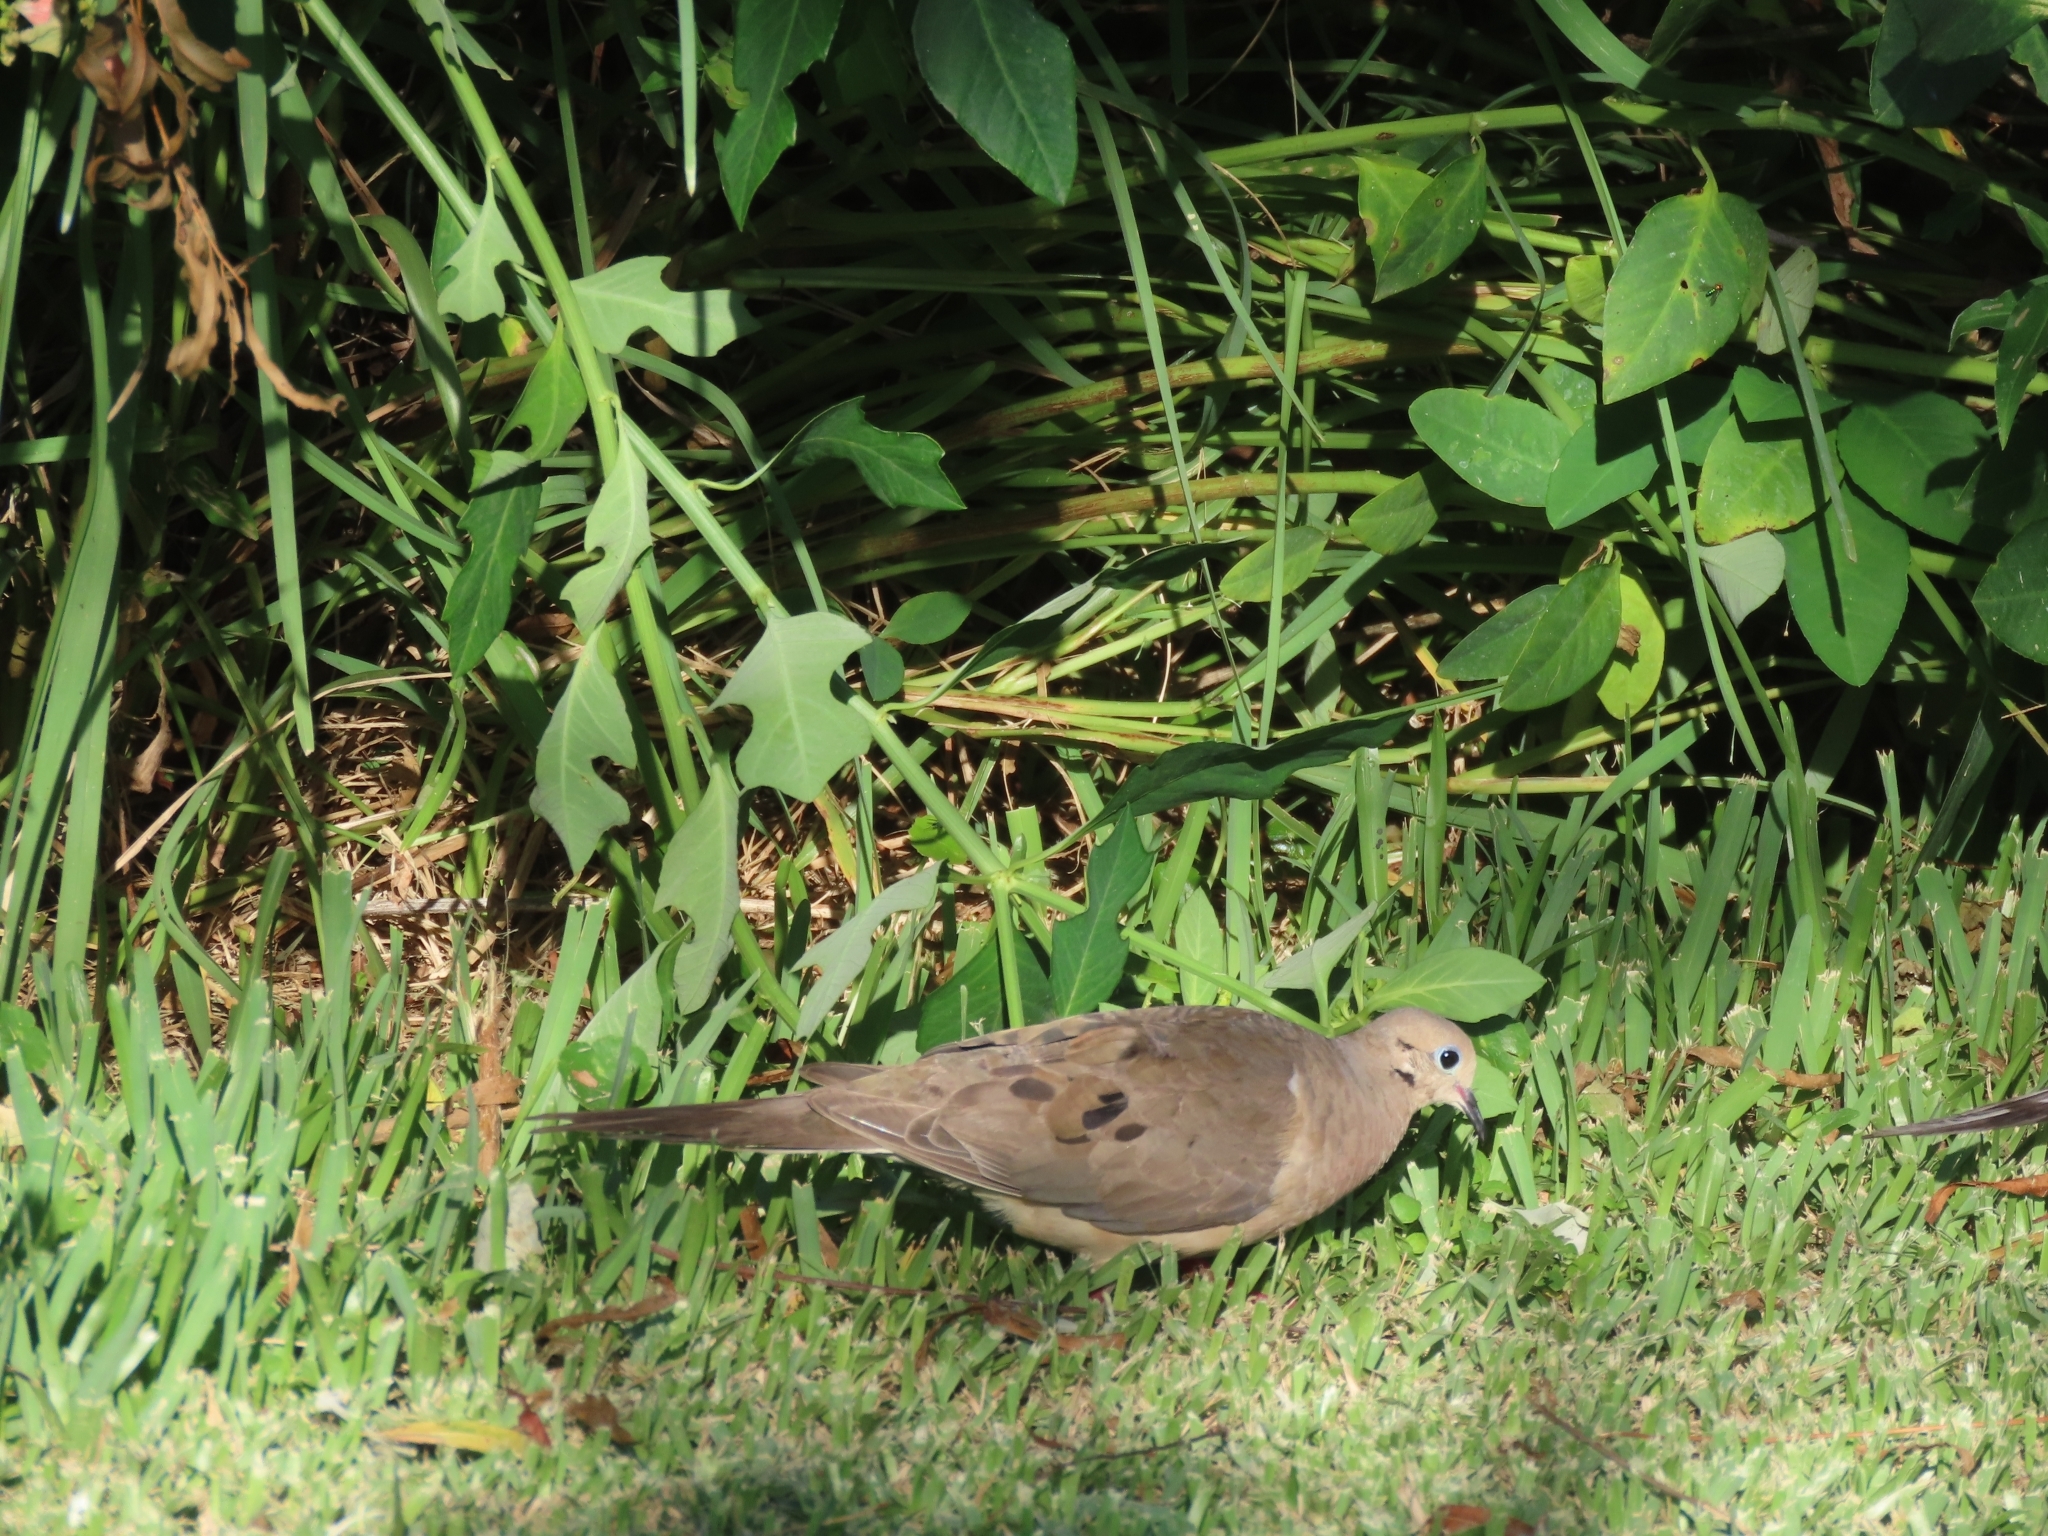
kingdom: Animalia
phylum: Chordata
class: Aves
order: Columbiformes
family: Columbidae
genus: Zenaida
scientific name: Zenaida macroura
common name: Mourning dove
